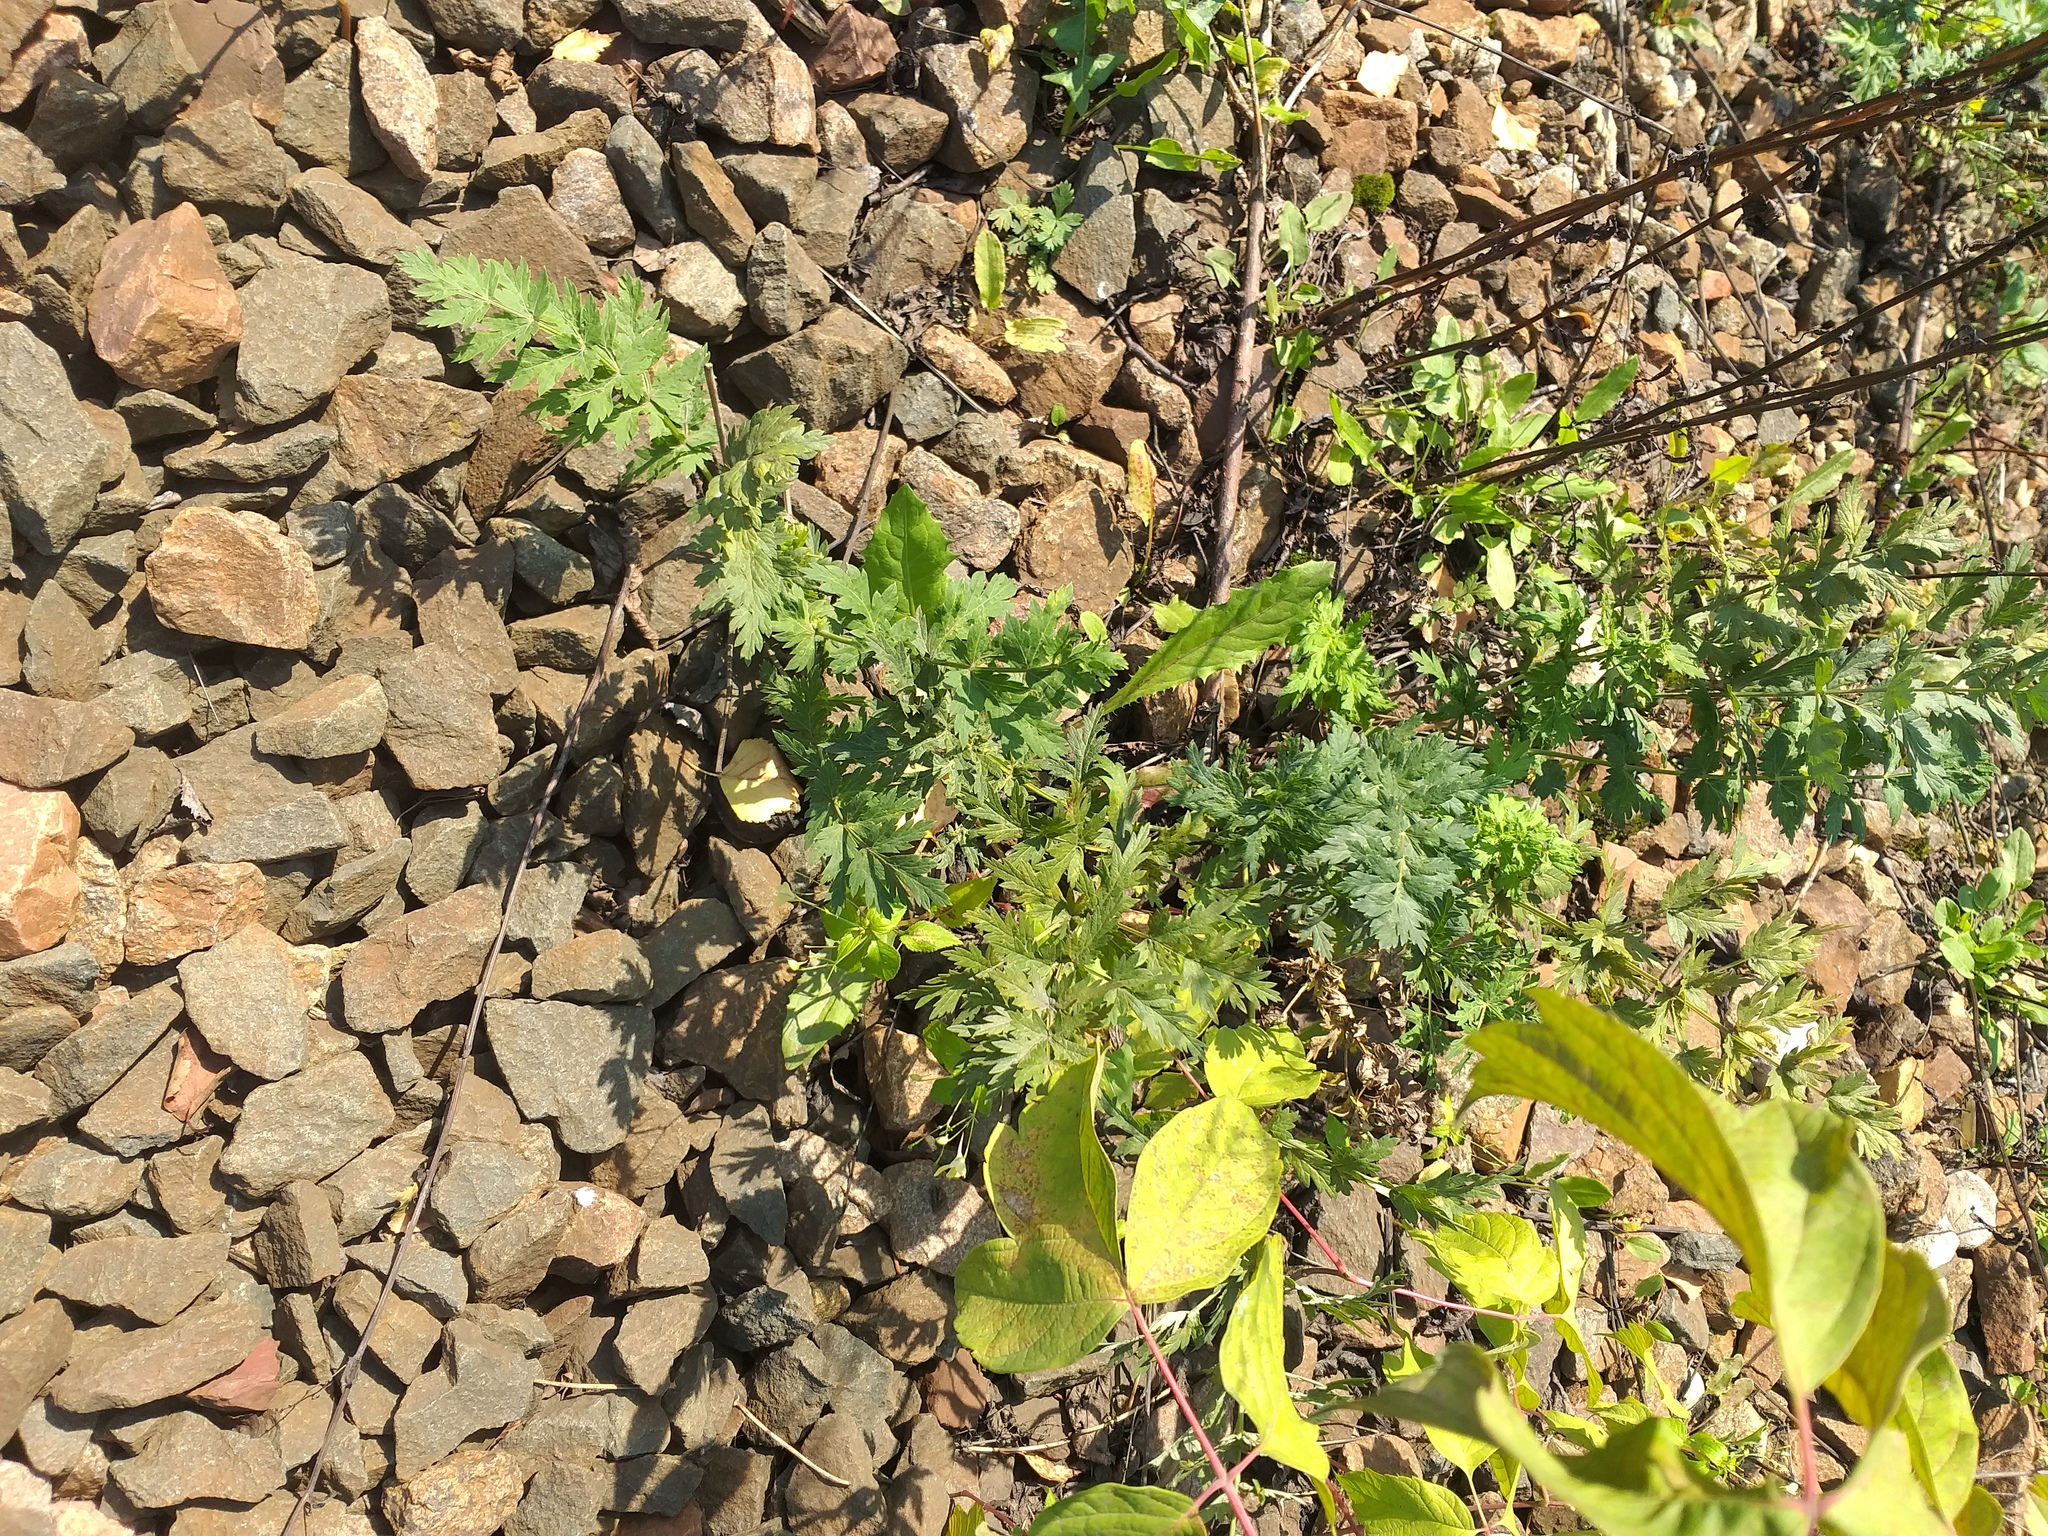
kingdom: Plantae
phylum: Tracheophyta
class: Magnoliopsida
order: Apiales
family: Apiaceae
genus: Seseli
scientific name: Seseli libanotis
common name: Mooncarrot
